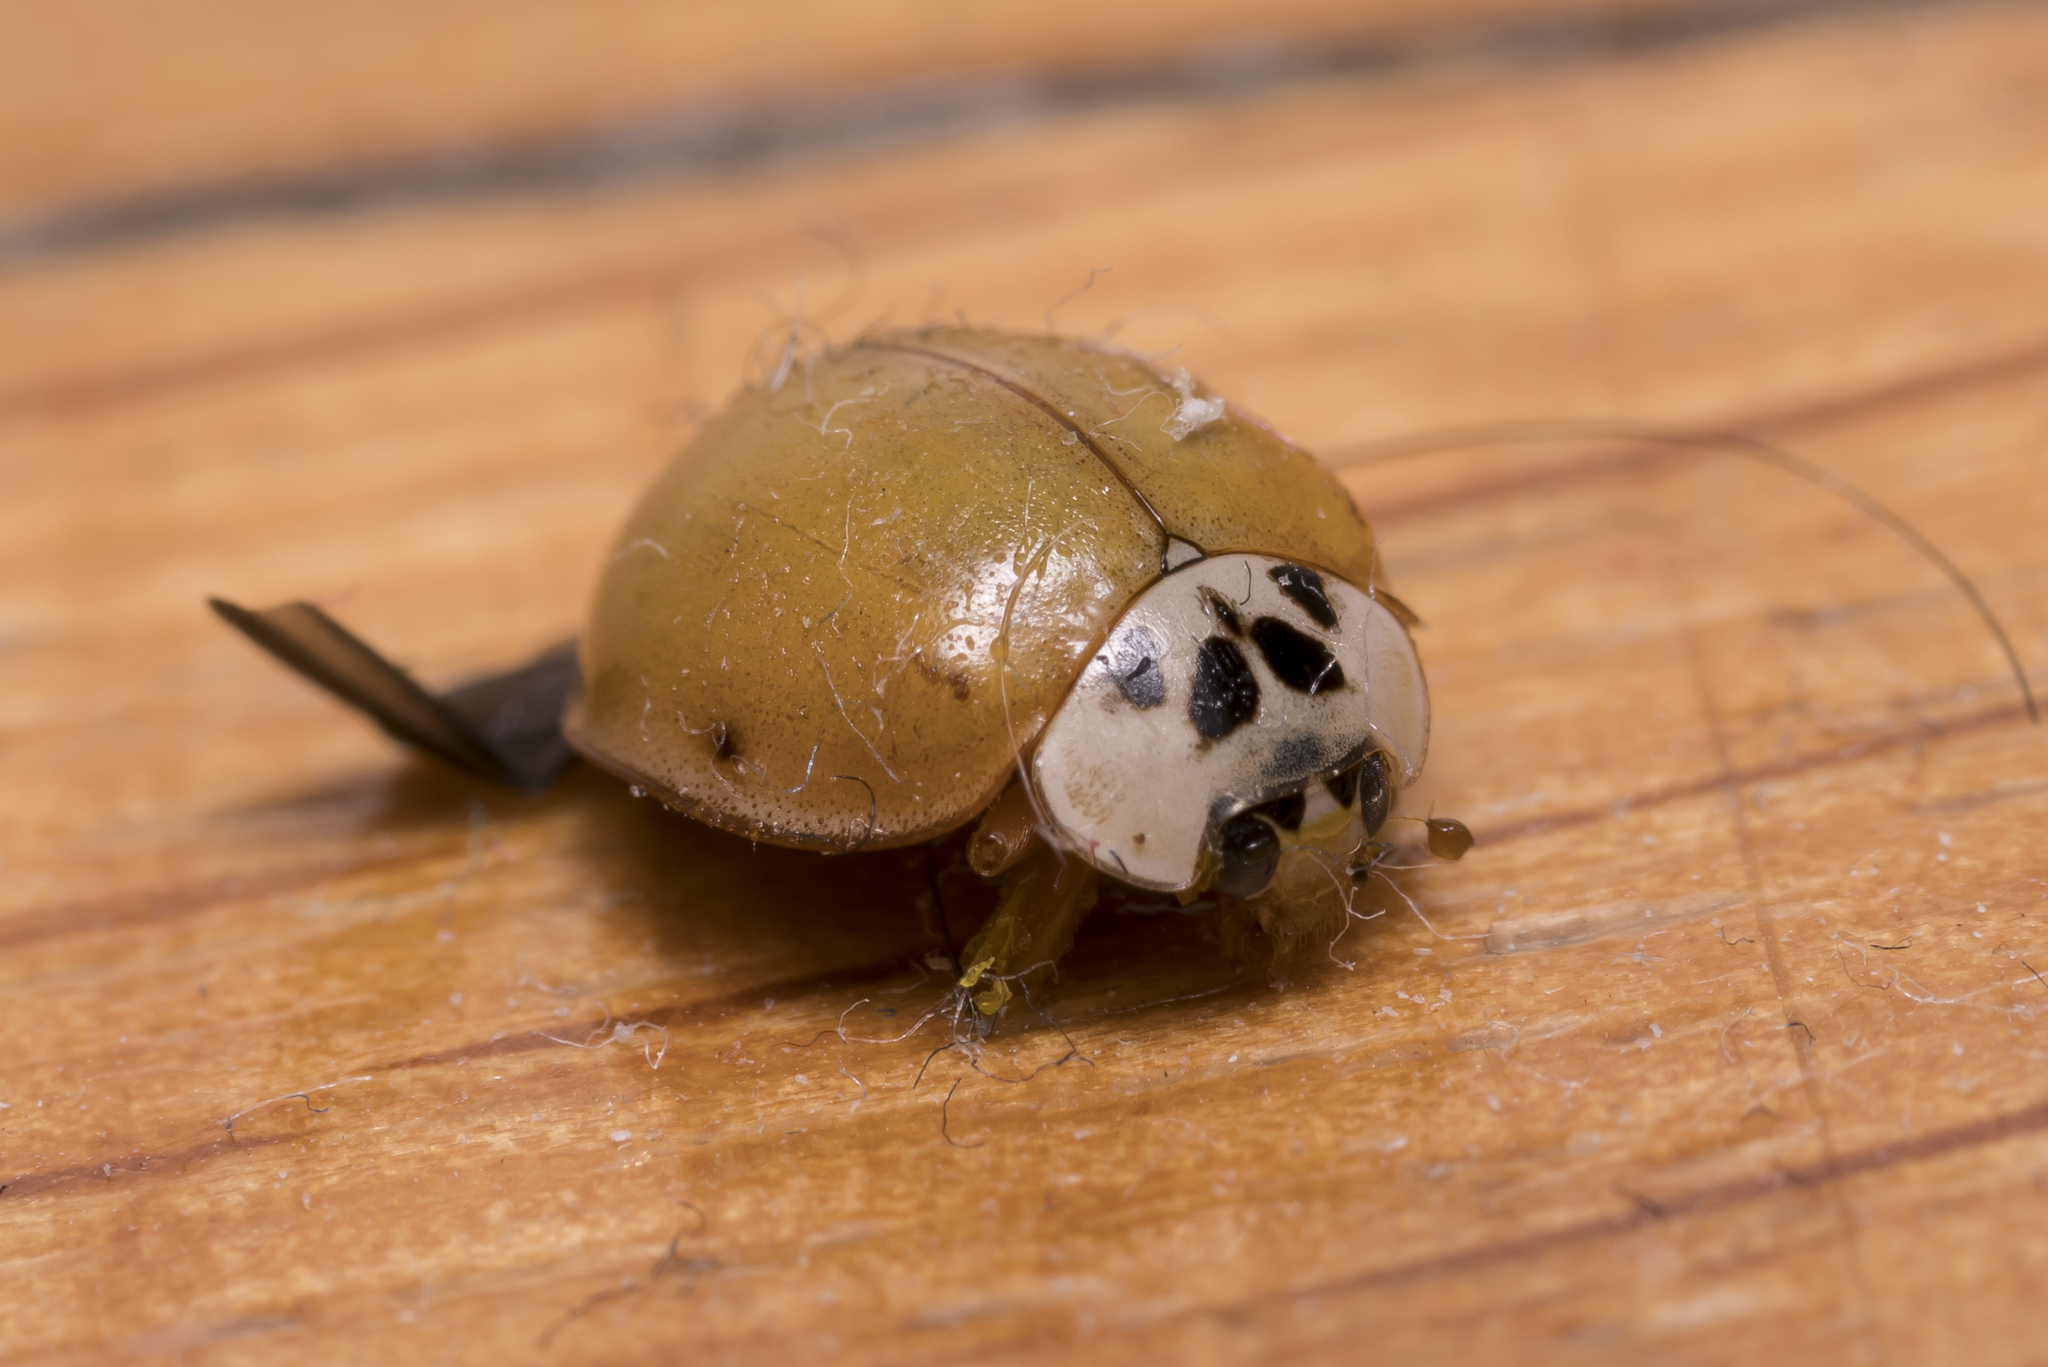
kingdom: Animalia
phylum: Arthropoda
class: Insecta
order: Coleoptera
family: Coccinellidae
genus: Harmonia
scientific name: Harmonia axyridis
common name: Harlequin ladybird
